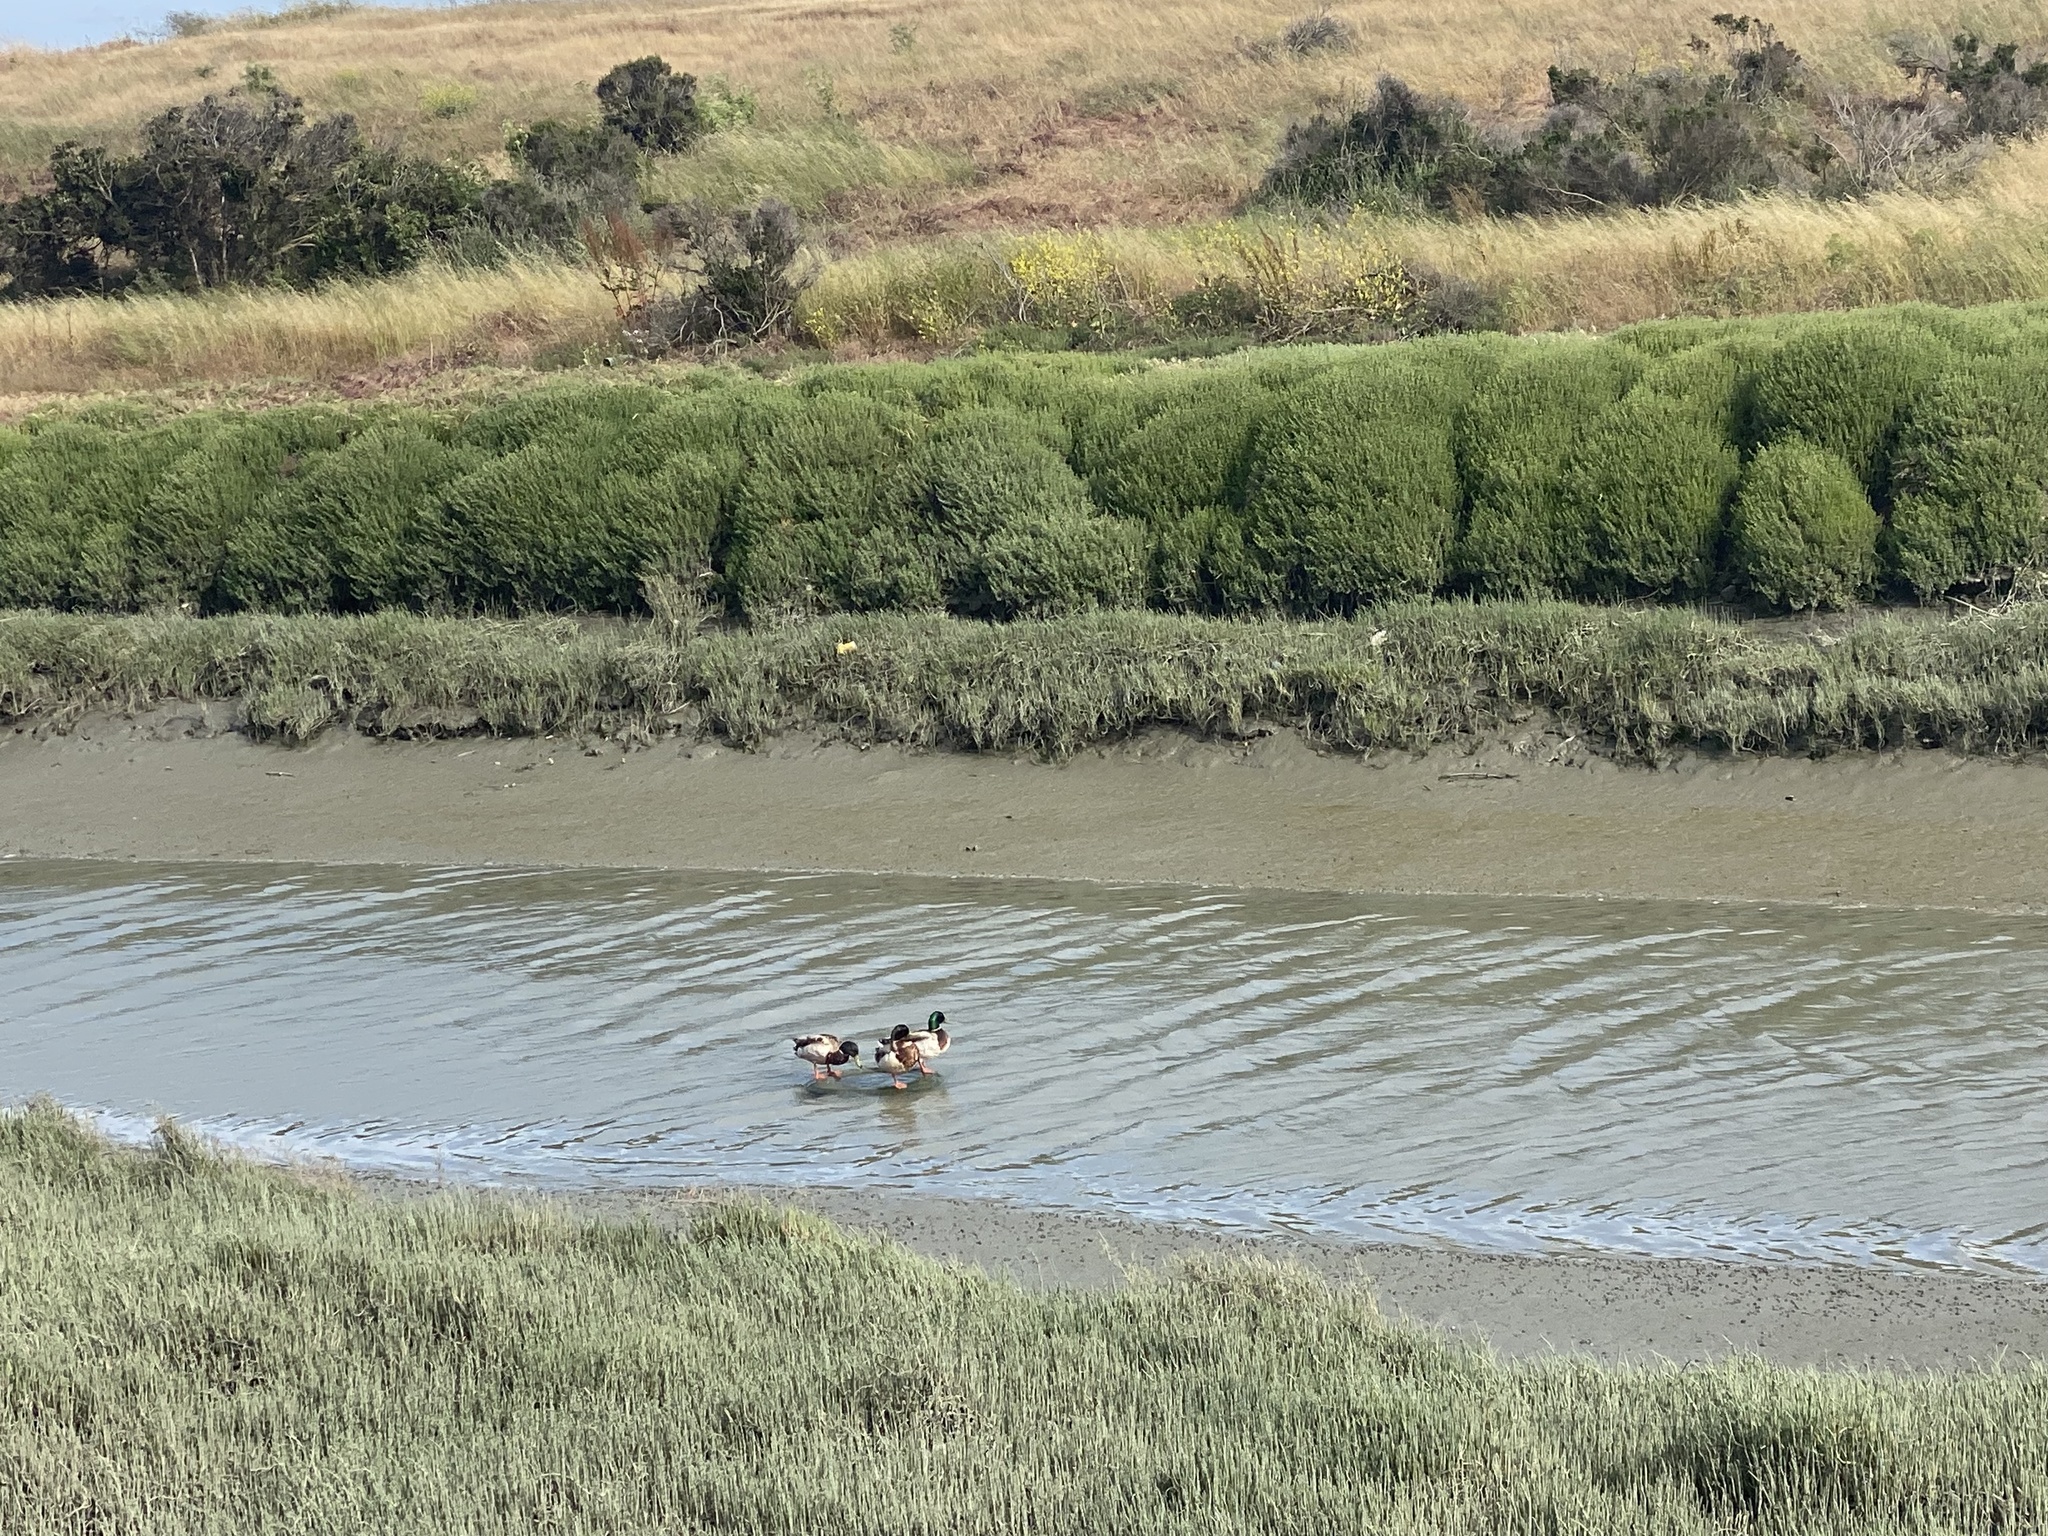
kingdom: Animalia
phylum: Chordata
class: Aves
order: Anseriformes
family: Anatidae
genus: Anas
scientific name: Anas platyrhynchos
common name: Mallard
